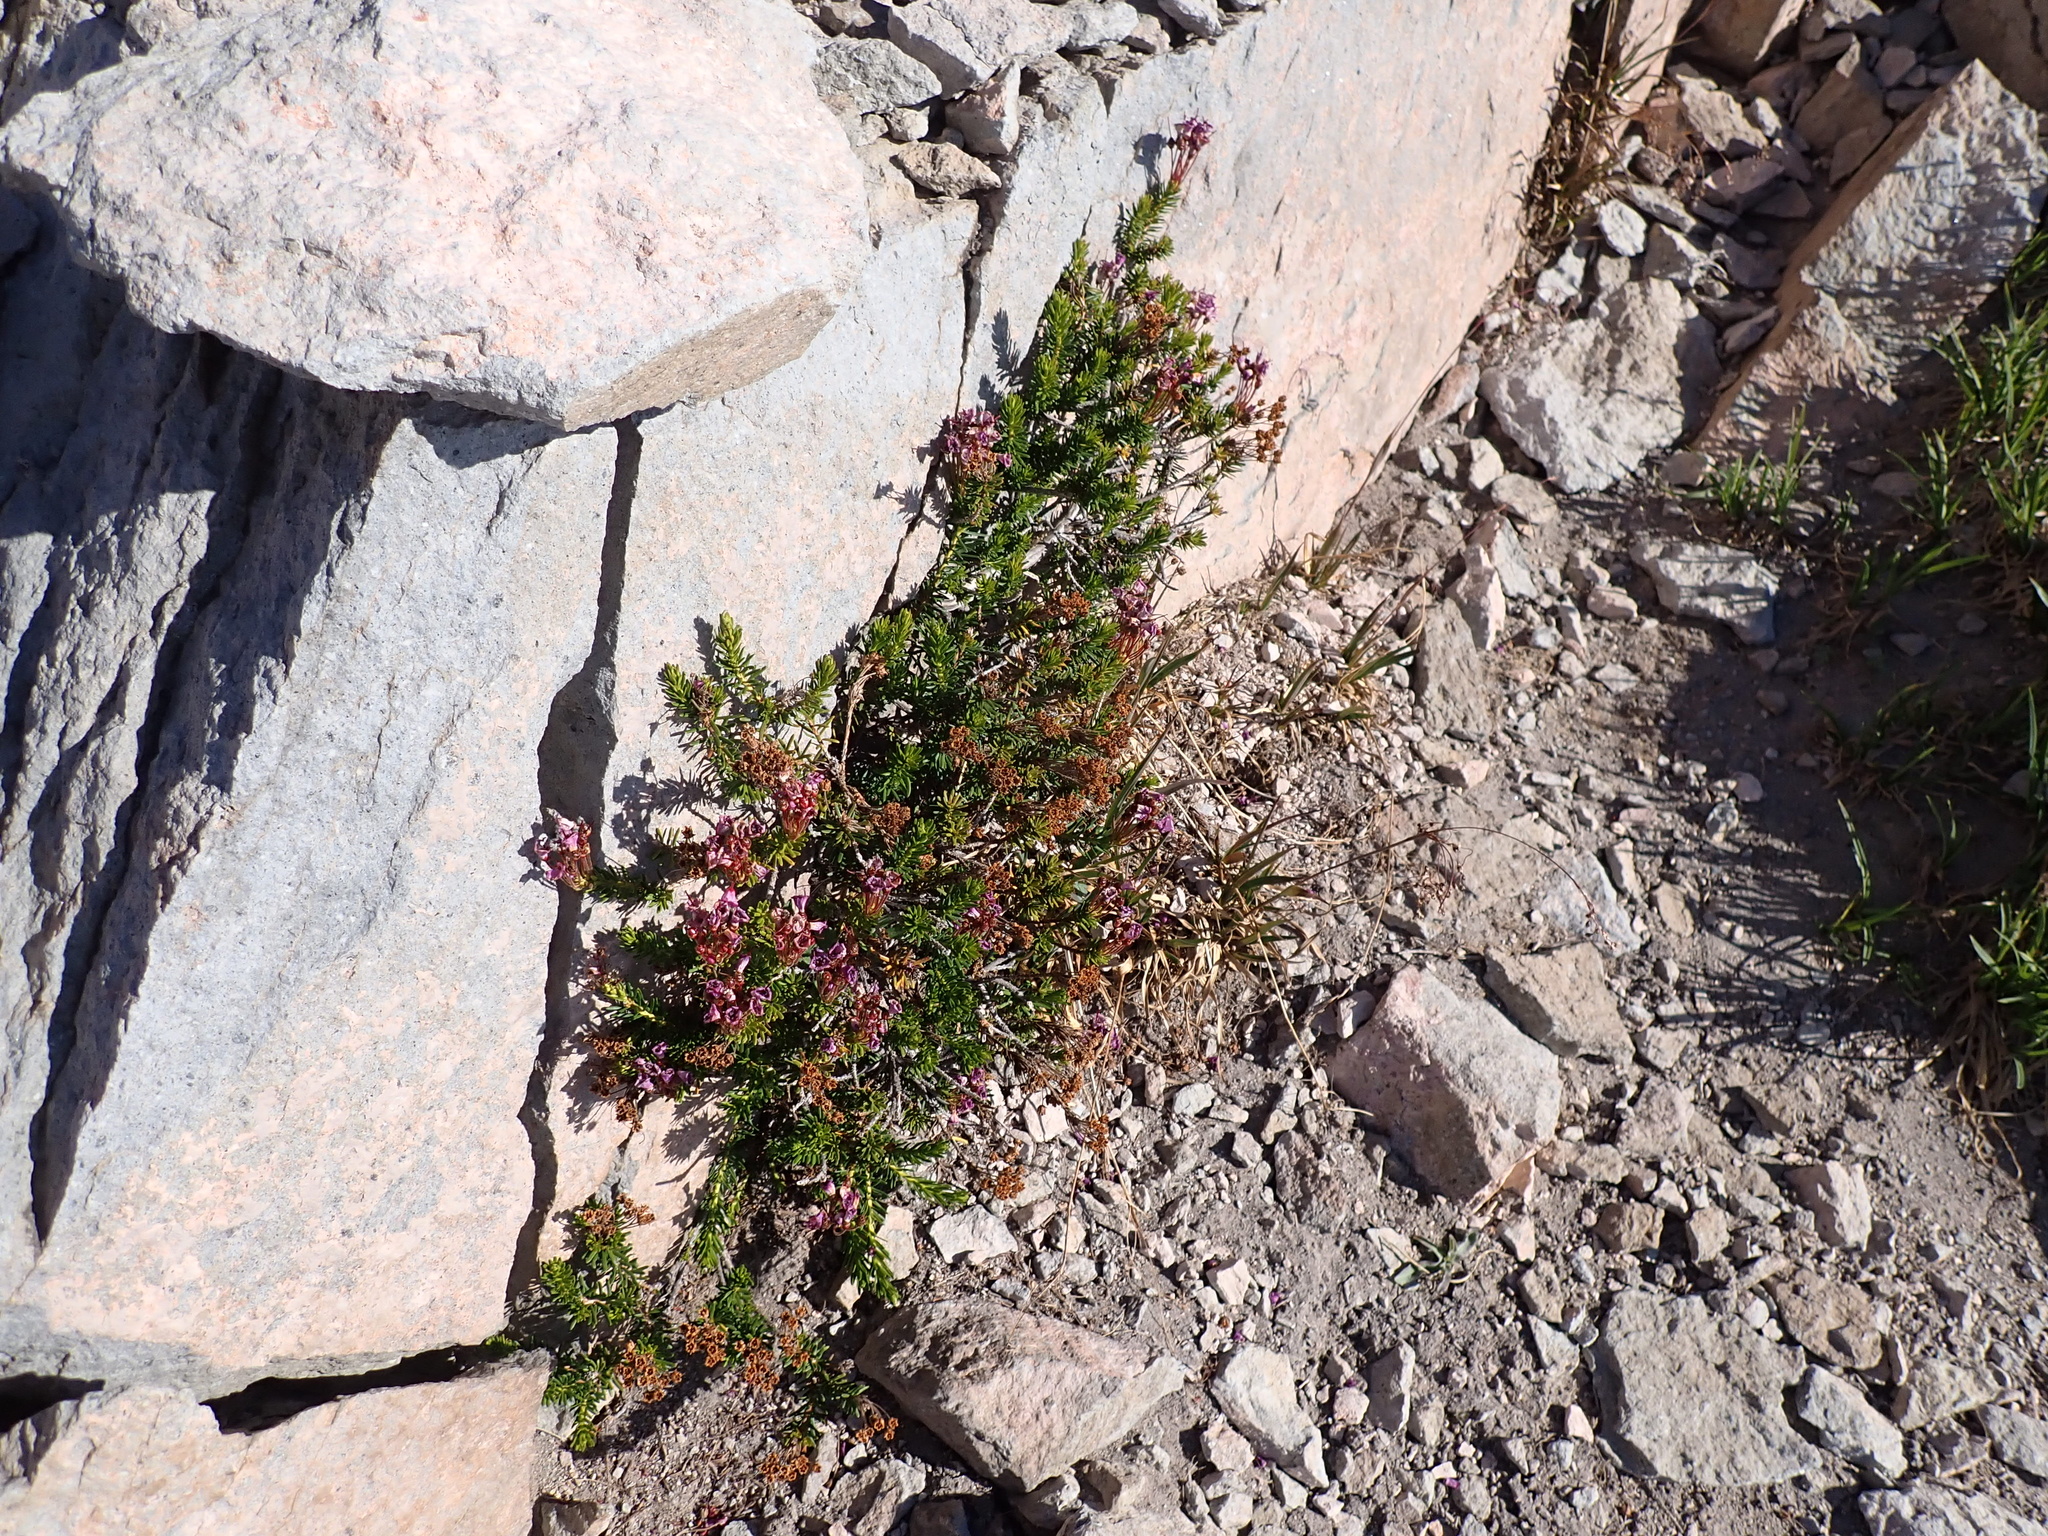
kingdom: Plantae
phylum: Tracheophyta
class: Magnoliopsida
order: Ericales
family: Ericaceae
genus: Phyllodoce
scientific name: Phyllodoce empetriformis
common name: Pink mountain heather
